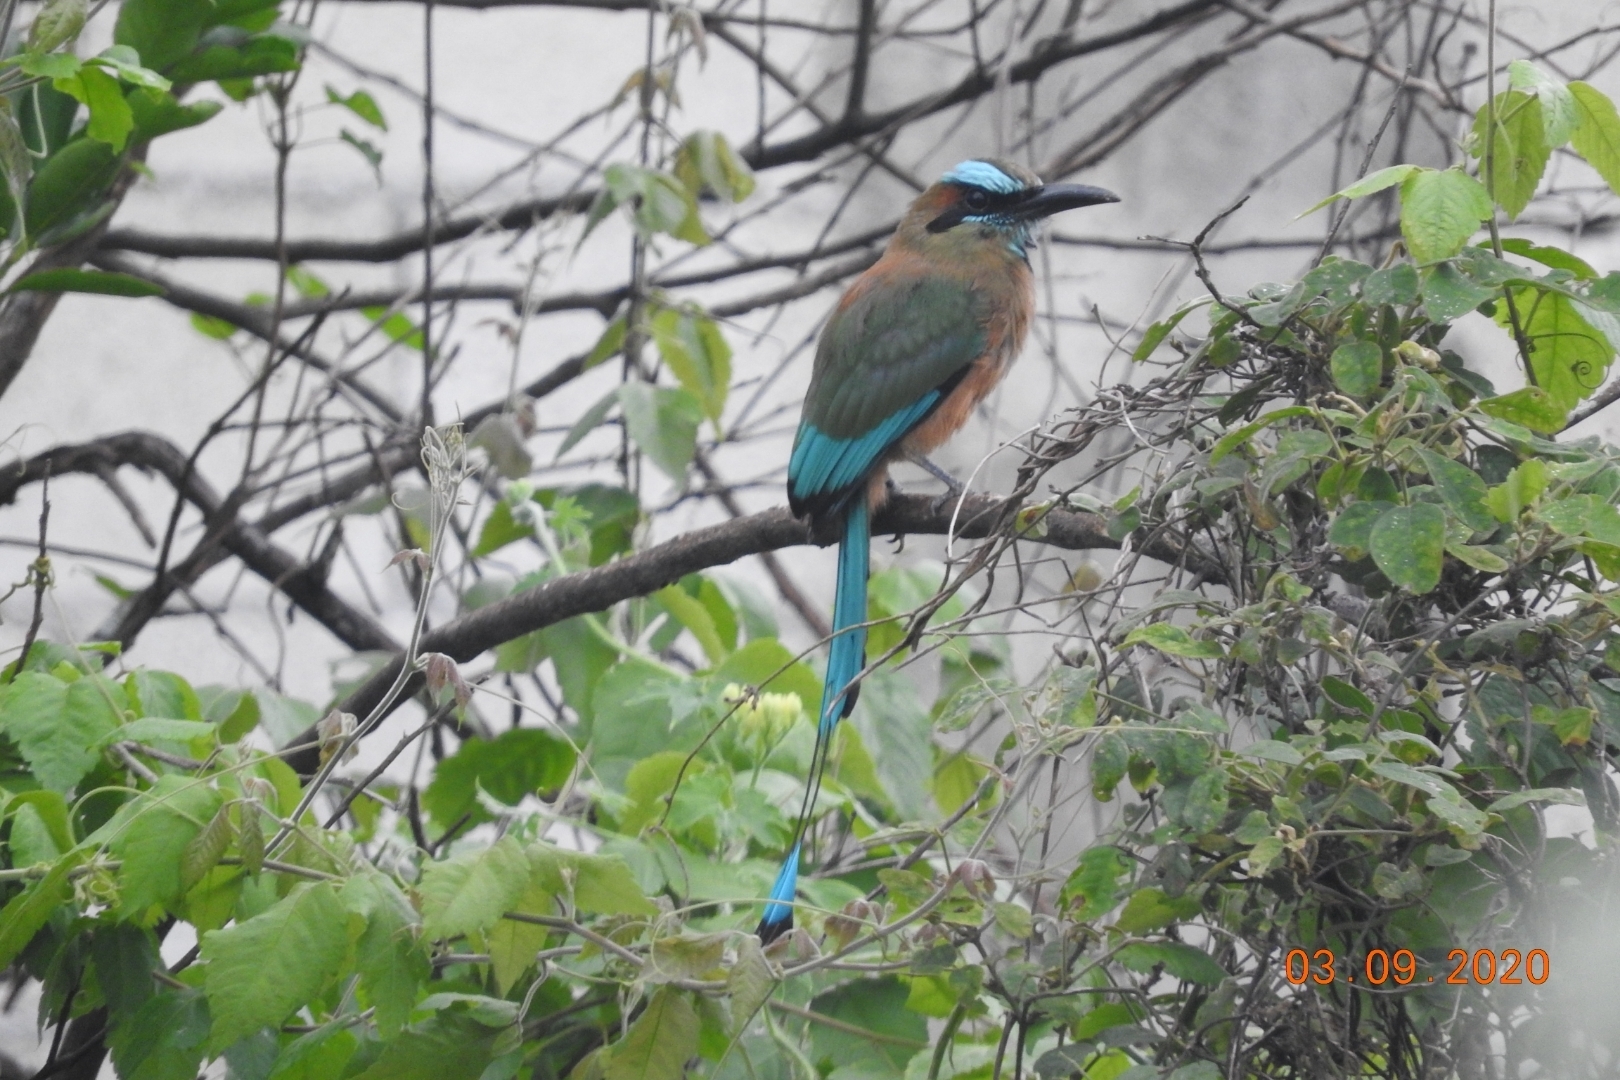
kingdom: Animalia
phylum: Chordata
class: Aves
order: Coraciiformes
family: Momotidae
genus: Eumomota
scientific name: Eumomota superciliosa
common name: Turquoise-browed motmot
